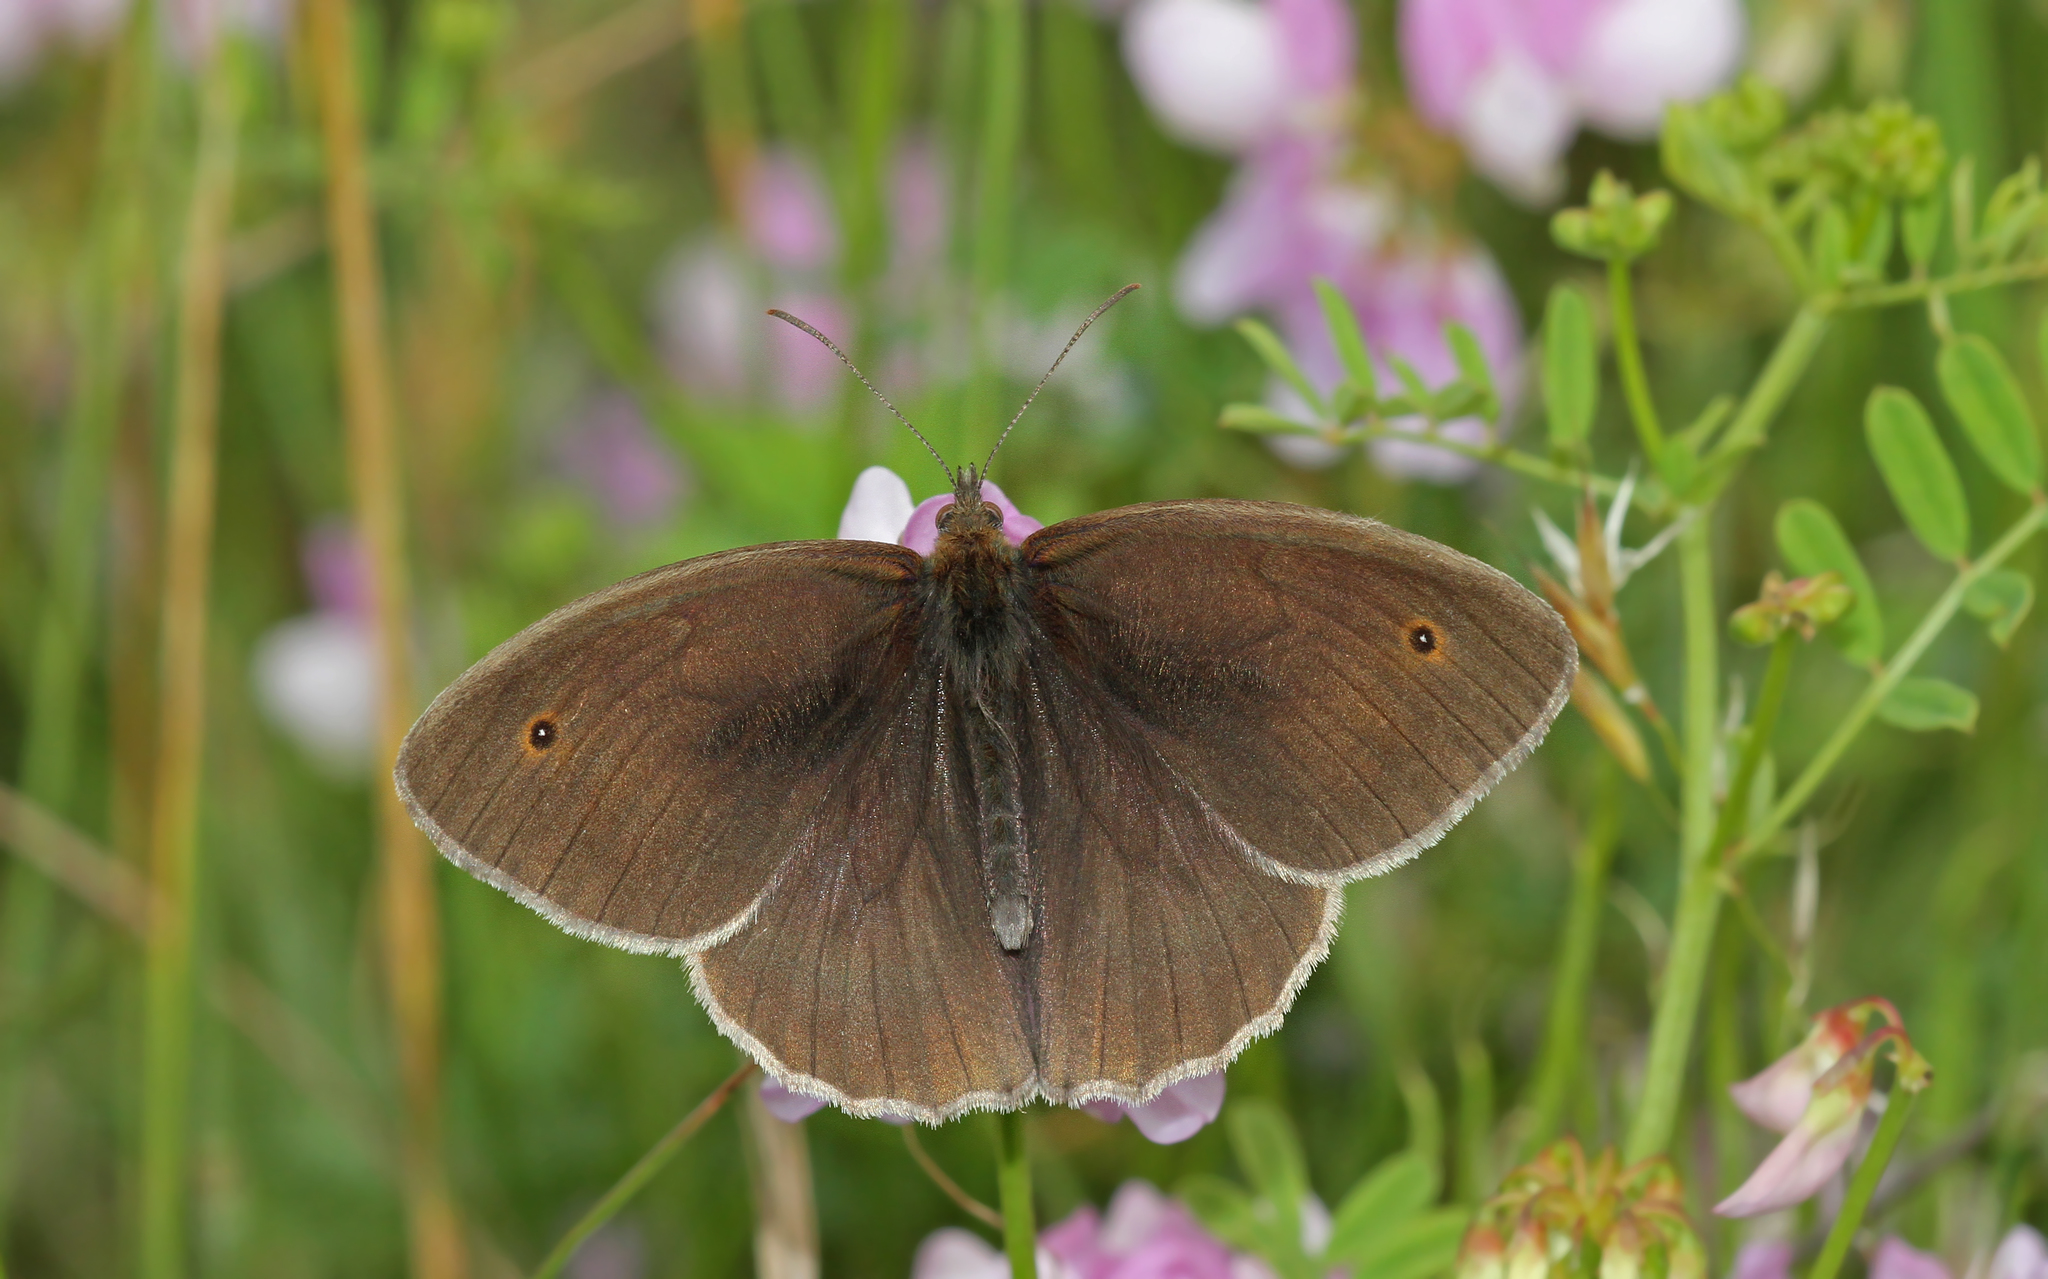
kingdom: Animalia
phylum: Arthropoda
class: Insecta
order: Lepidoptera
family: Nymphalidae
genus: Maniola
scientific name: Maniola jurtina
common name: Meadow brown
